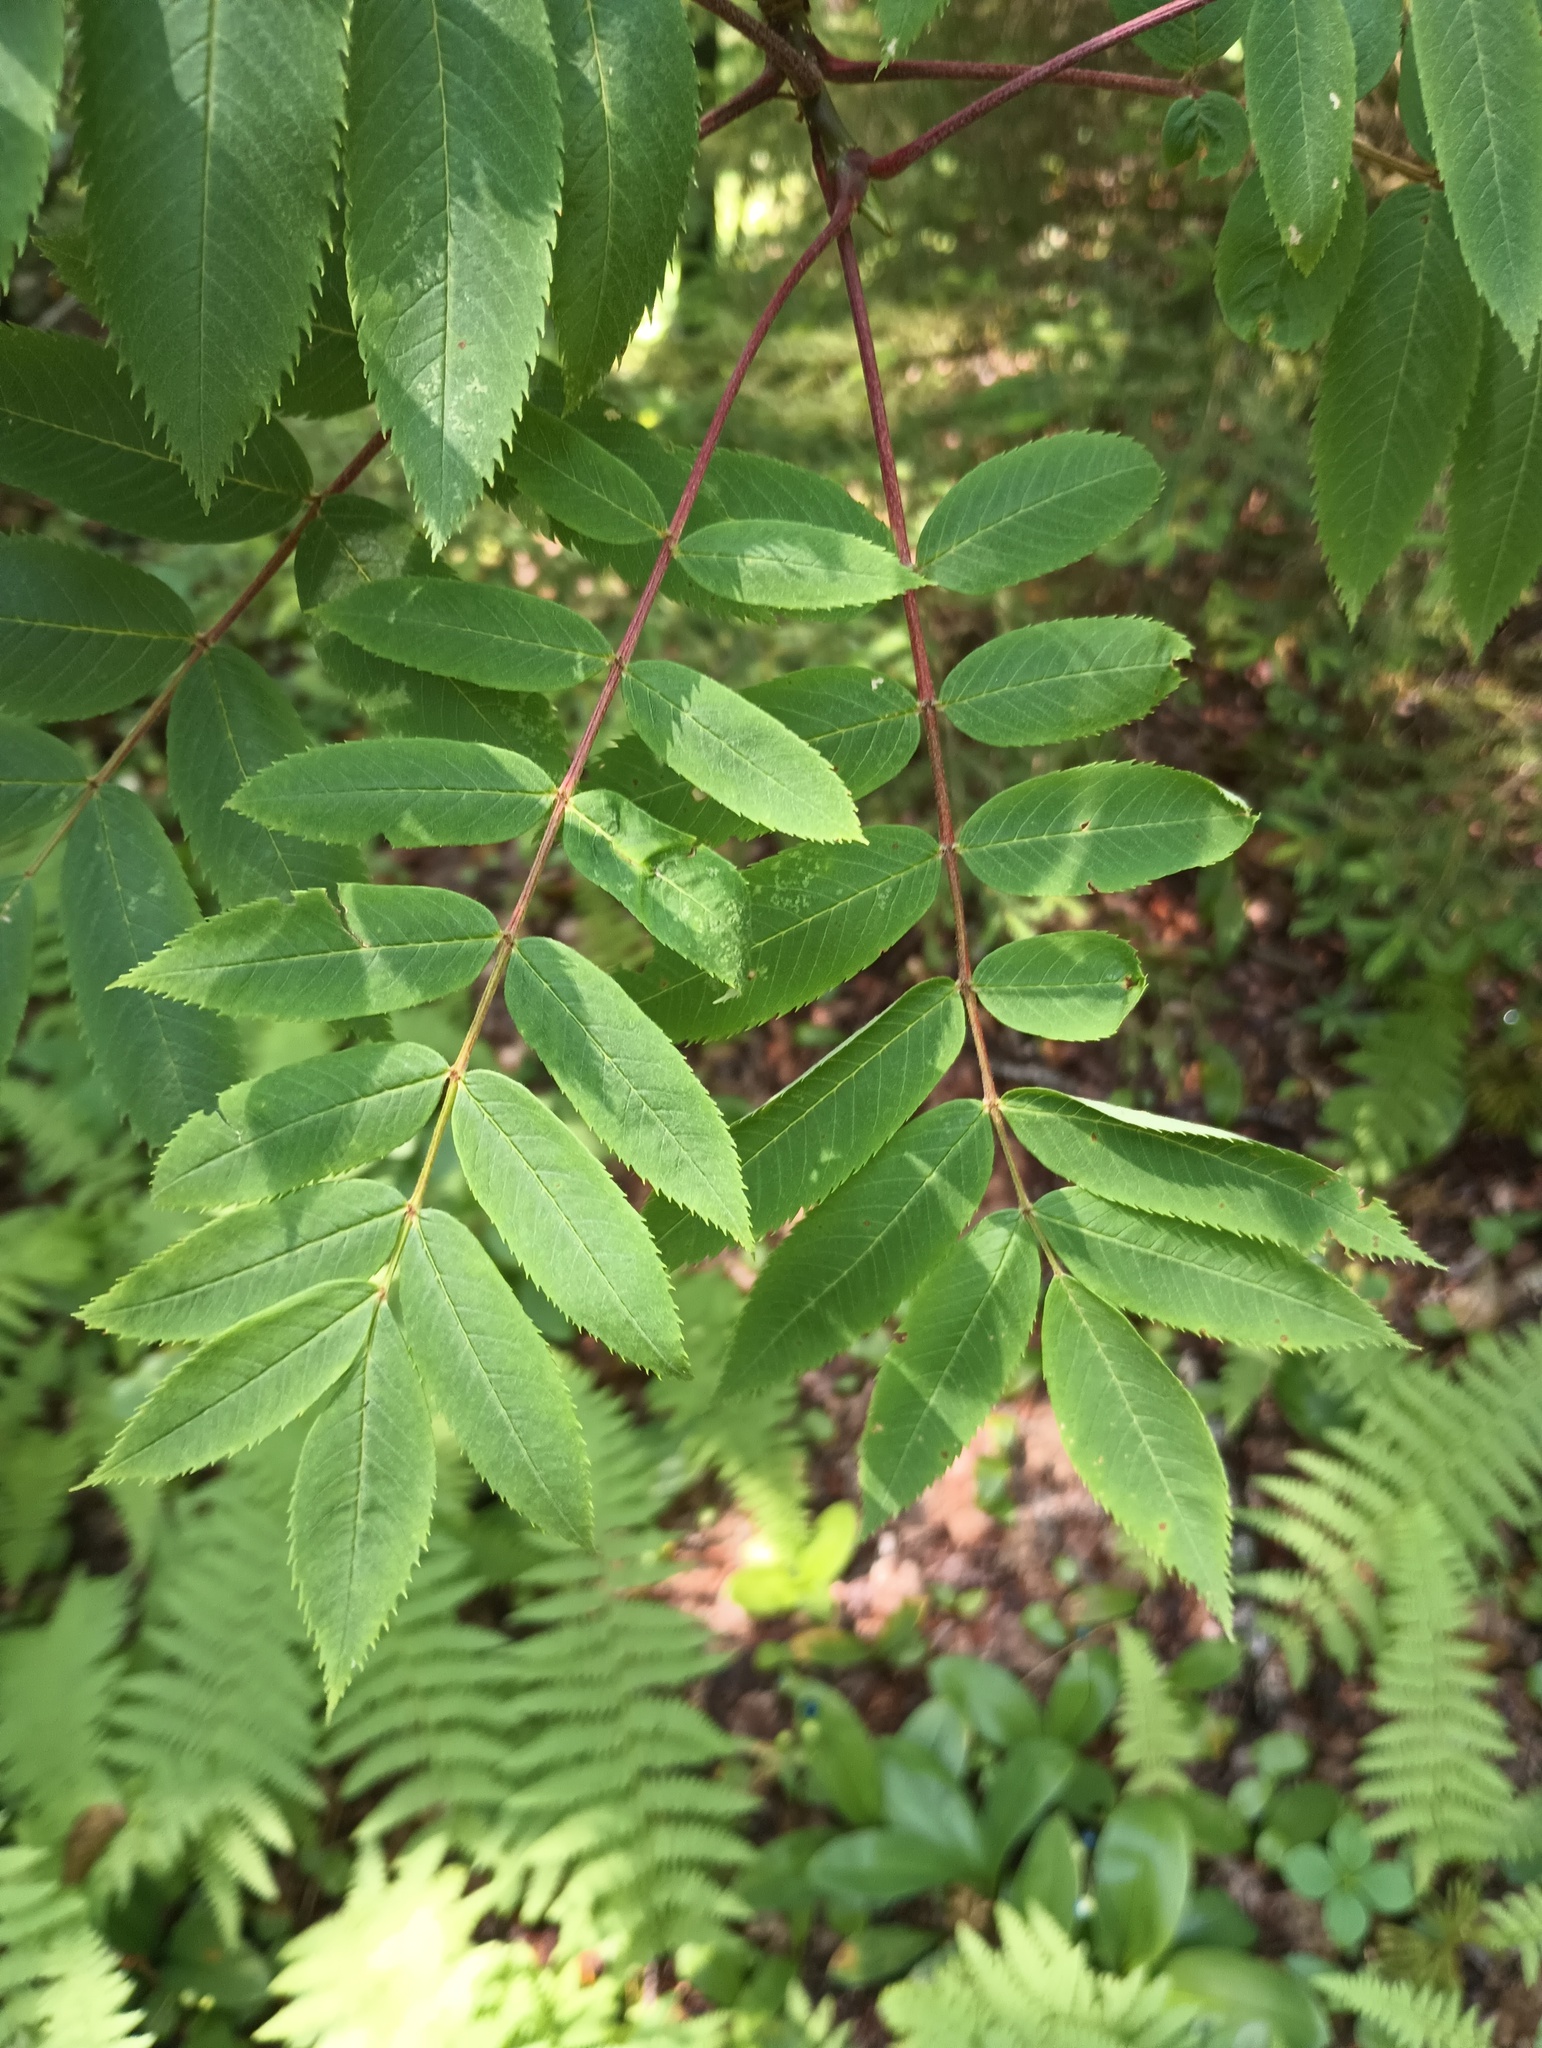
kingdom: Plantae
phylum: Tracheophyta
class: Magnoliopsida
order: Rosales
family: Rosaceae
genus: Sorbus
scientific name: Sorbus americana
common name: American mountain-ash
